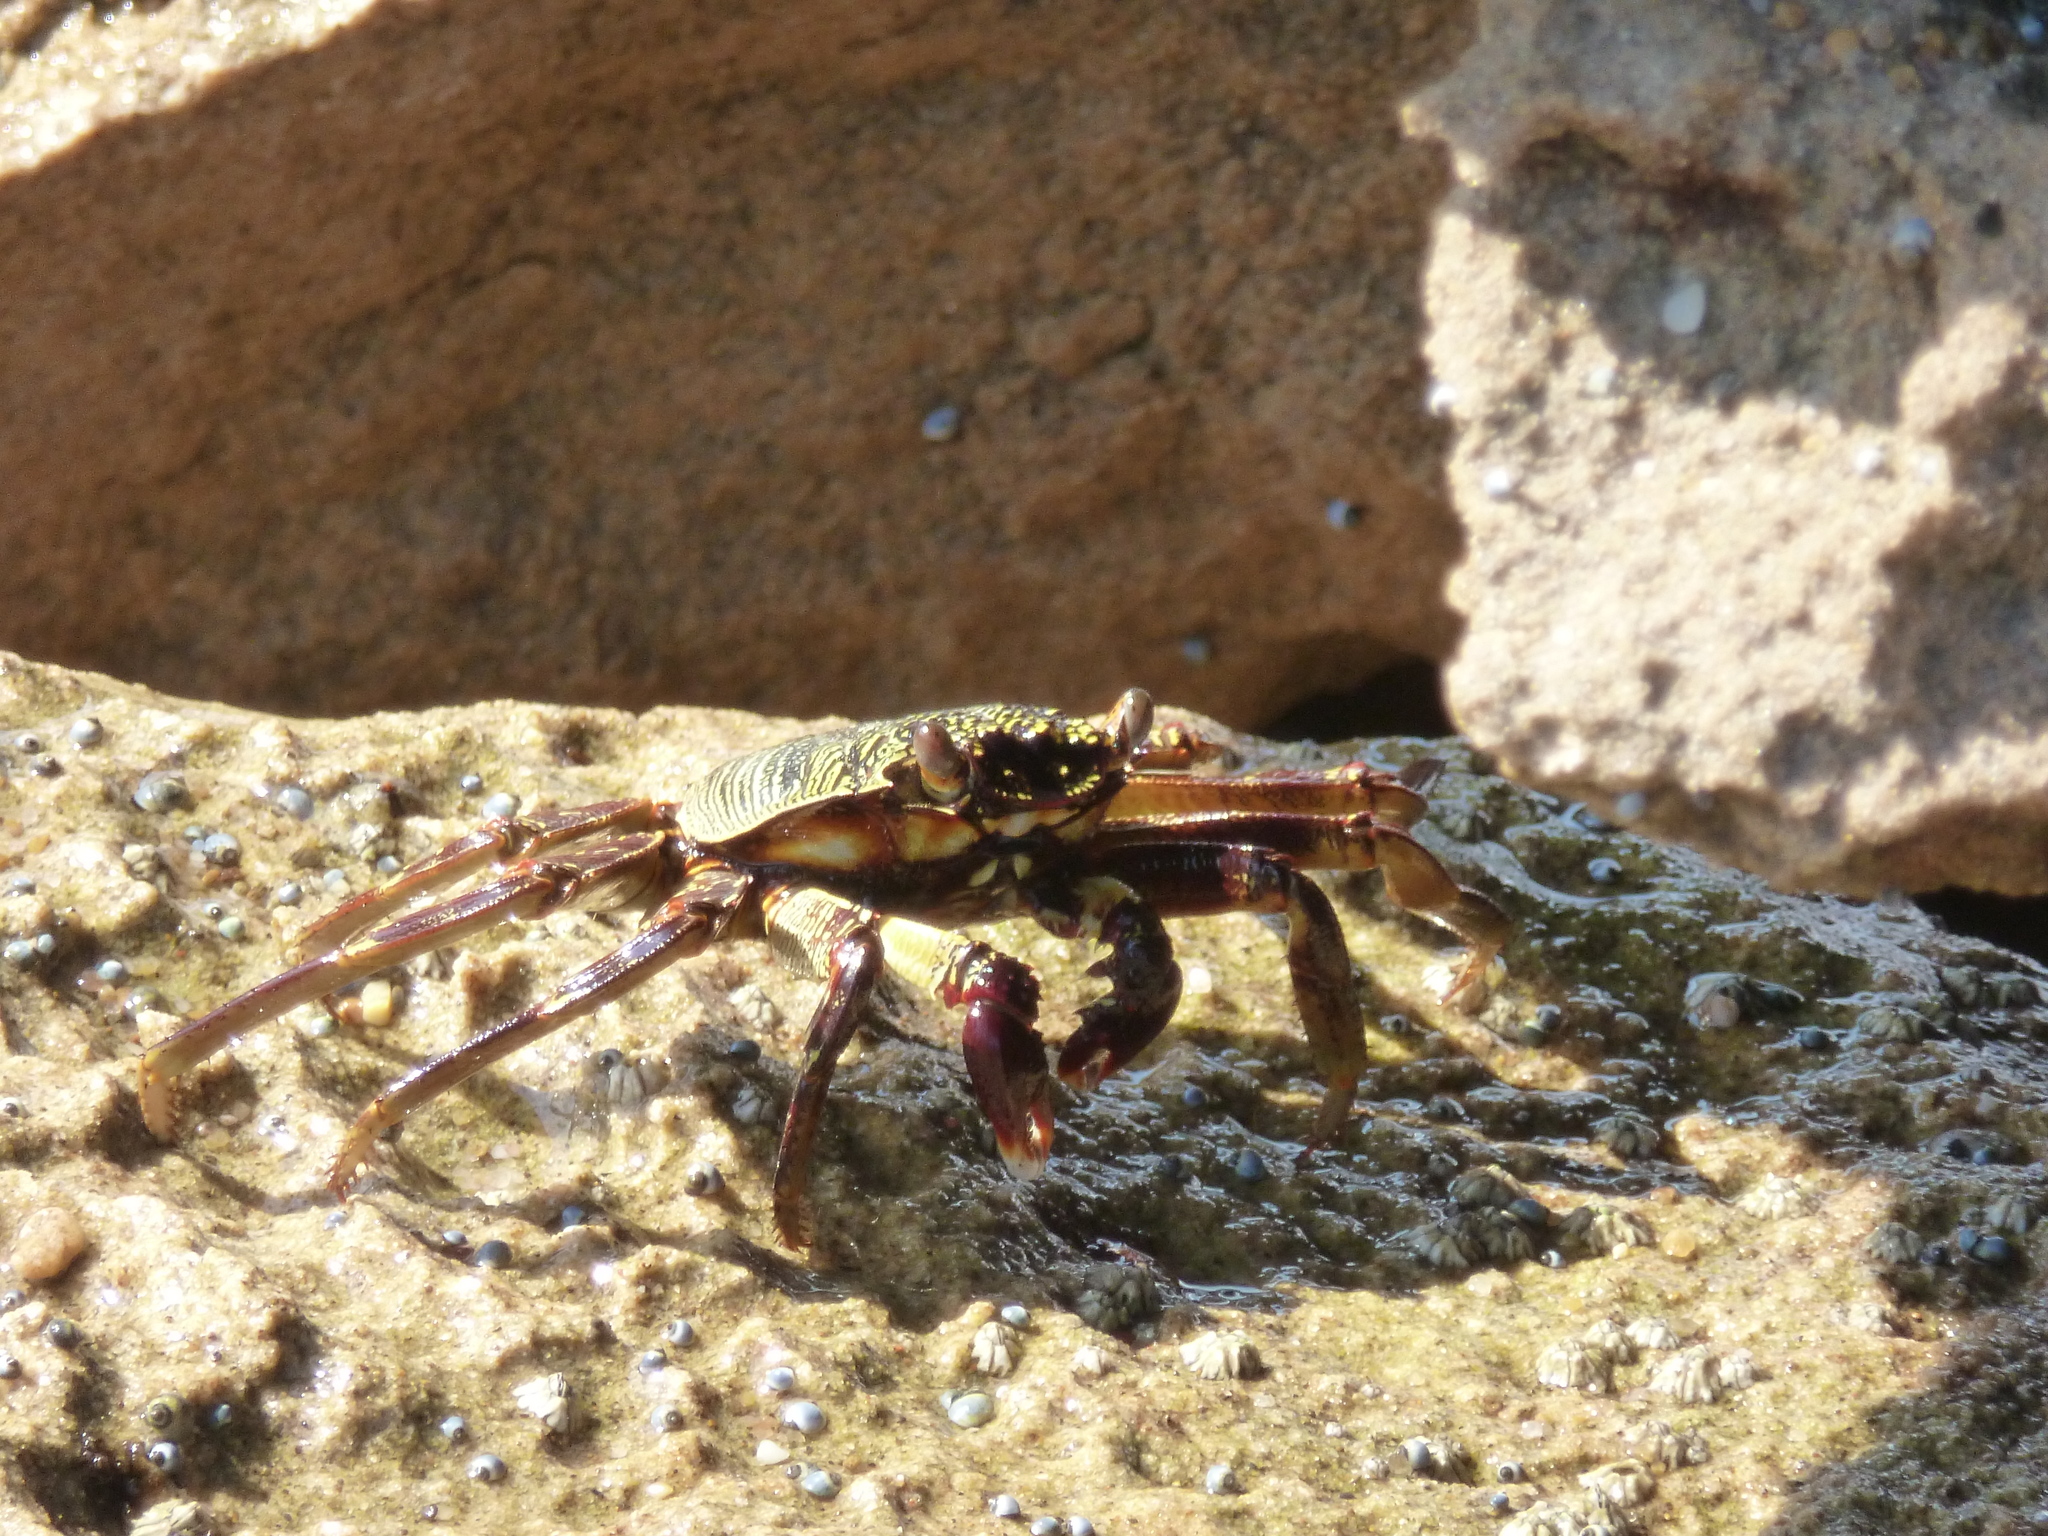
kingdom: Animalia
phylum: Arthropoda
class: Malacostraca
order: Decapoda
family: Grapsidae
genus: Grapsus
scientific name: Grapsus tenuicrustatus
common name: Natal lightfoot crab
